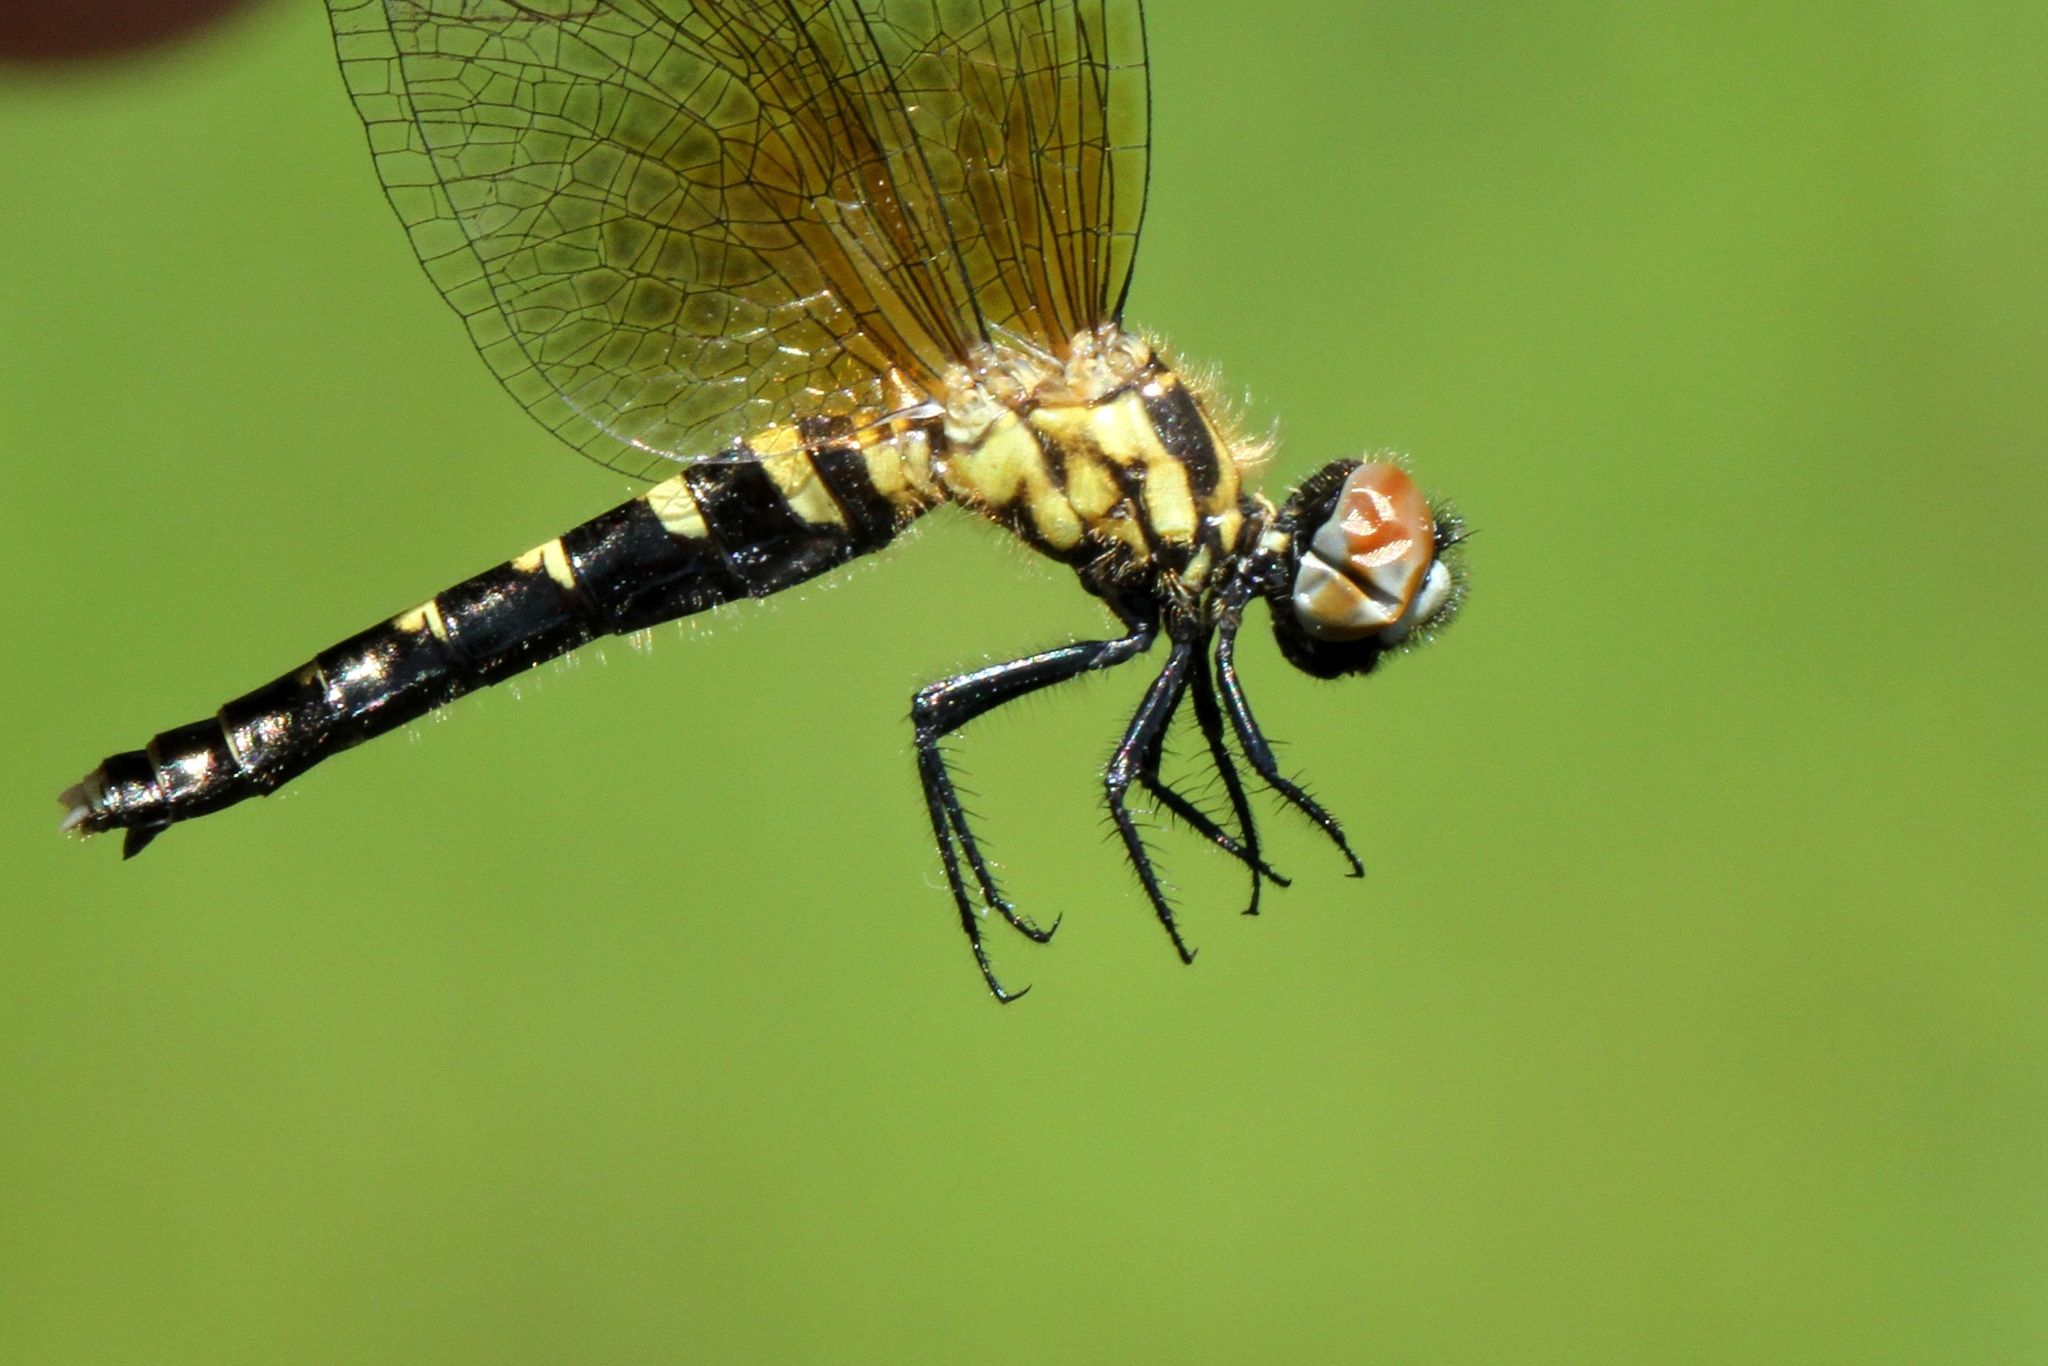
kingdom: Animalia
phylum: Arthropoda
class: Insecta
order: Odonata
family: Libellulidae
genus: Nannothemis
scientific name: Nannothemis bella
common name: Elfin skimmer
